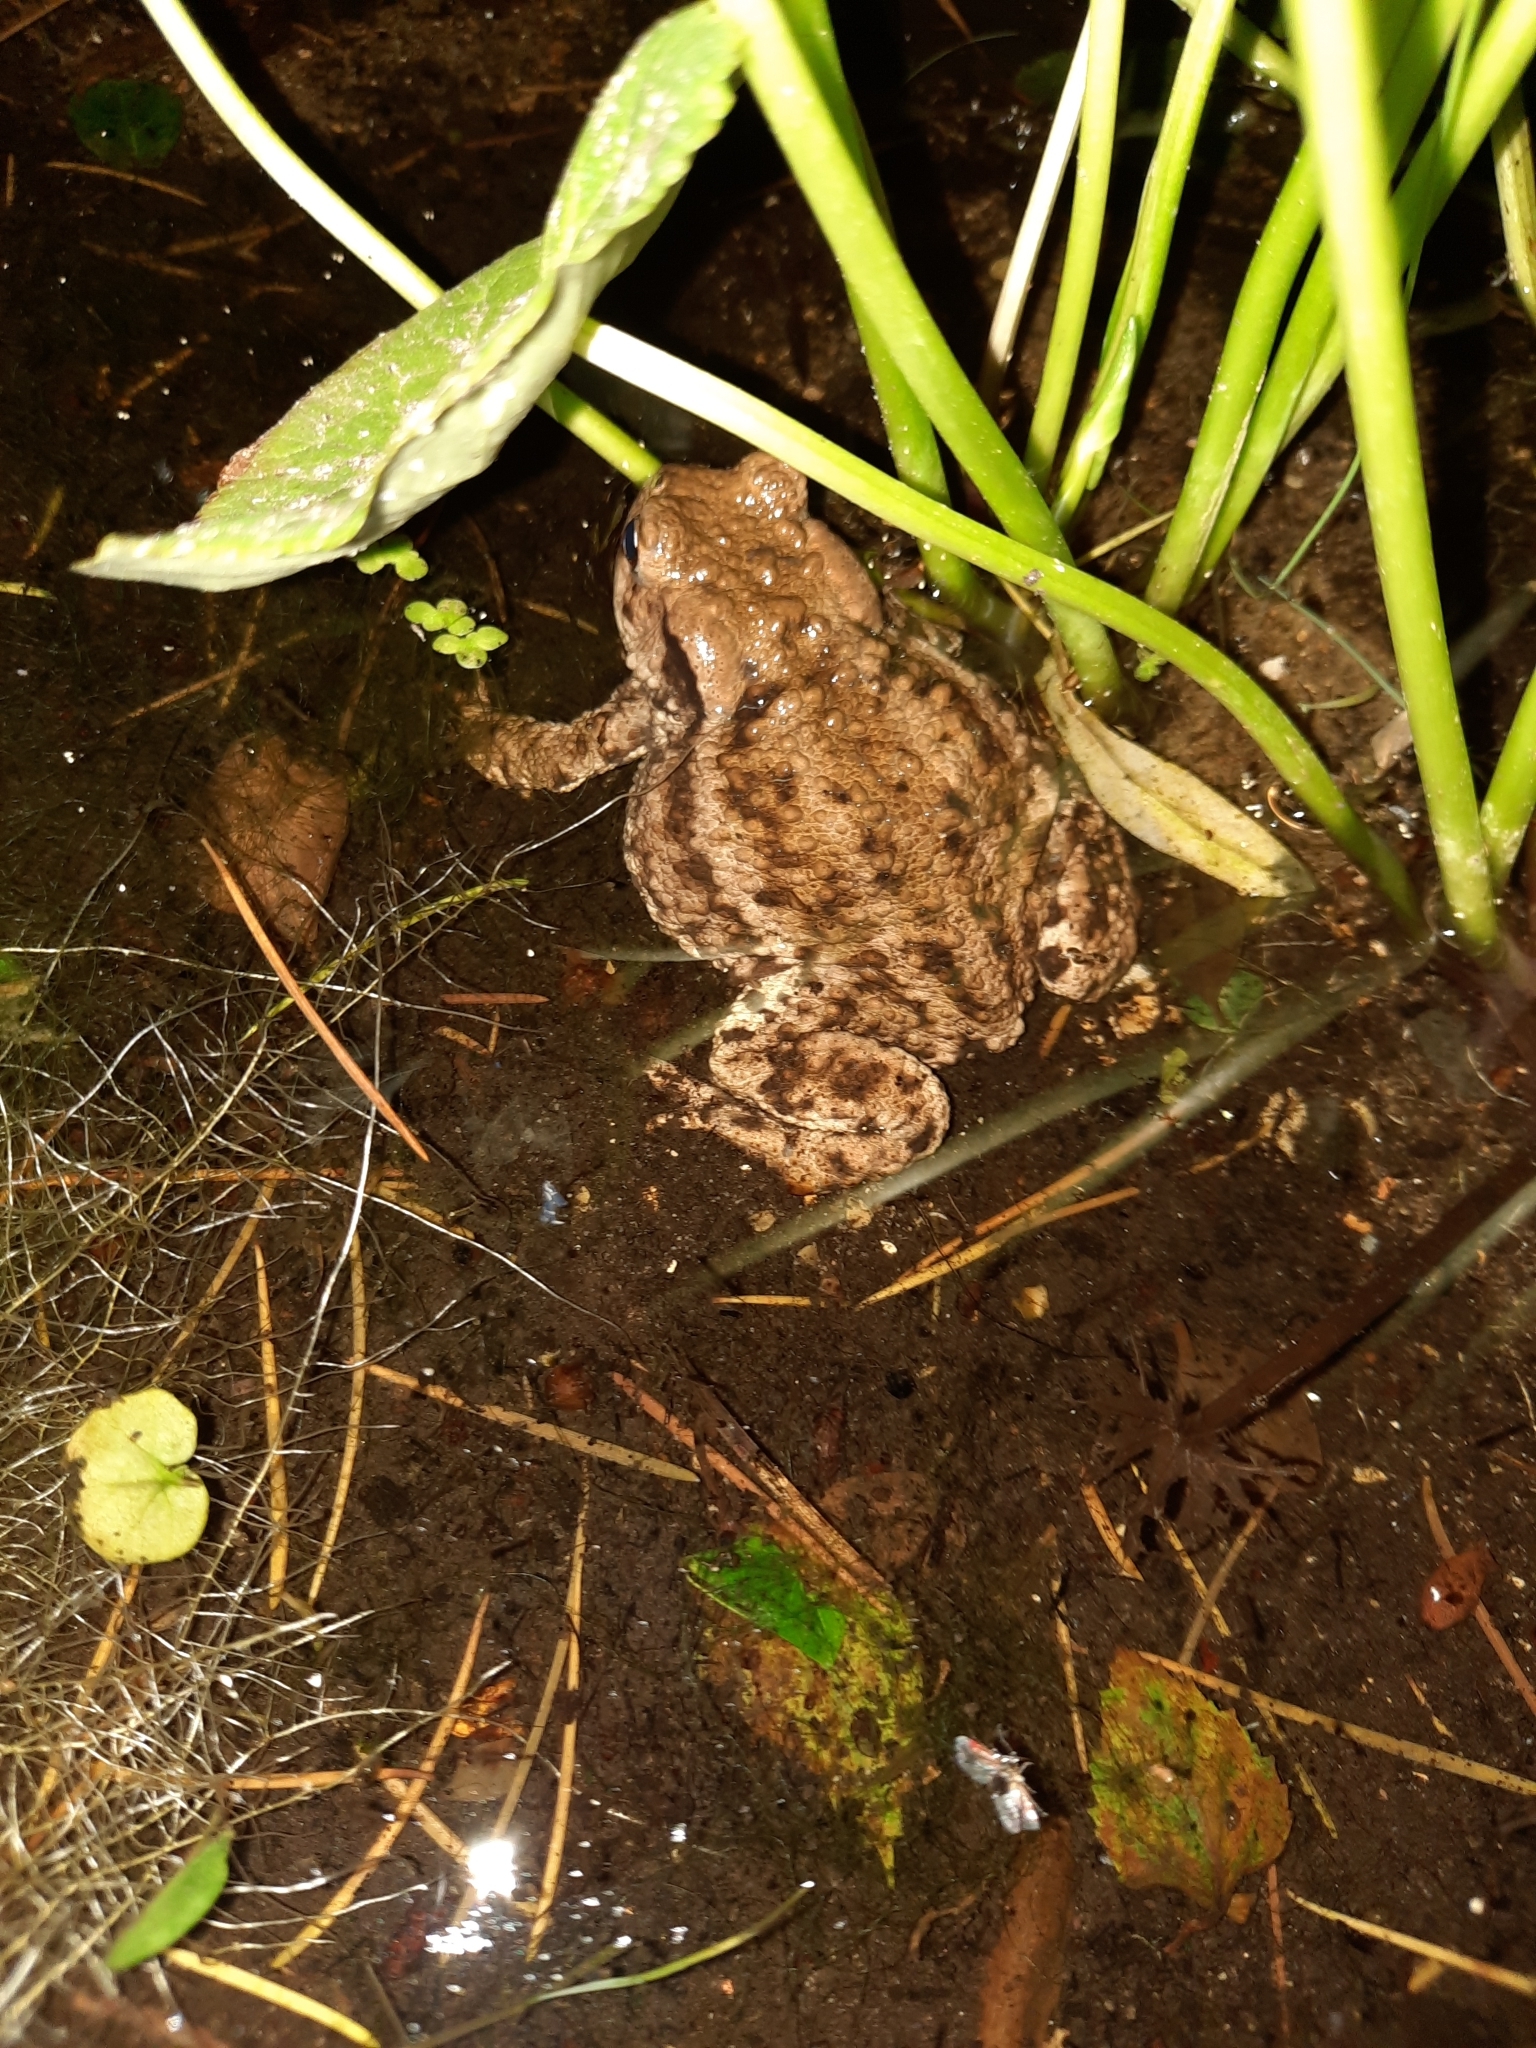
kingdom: Animalia
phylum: Chordata
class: Amphibia
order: Anura
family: Bufonidae
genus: Bufo
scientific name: Bufo bufo
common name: Common toad
